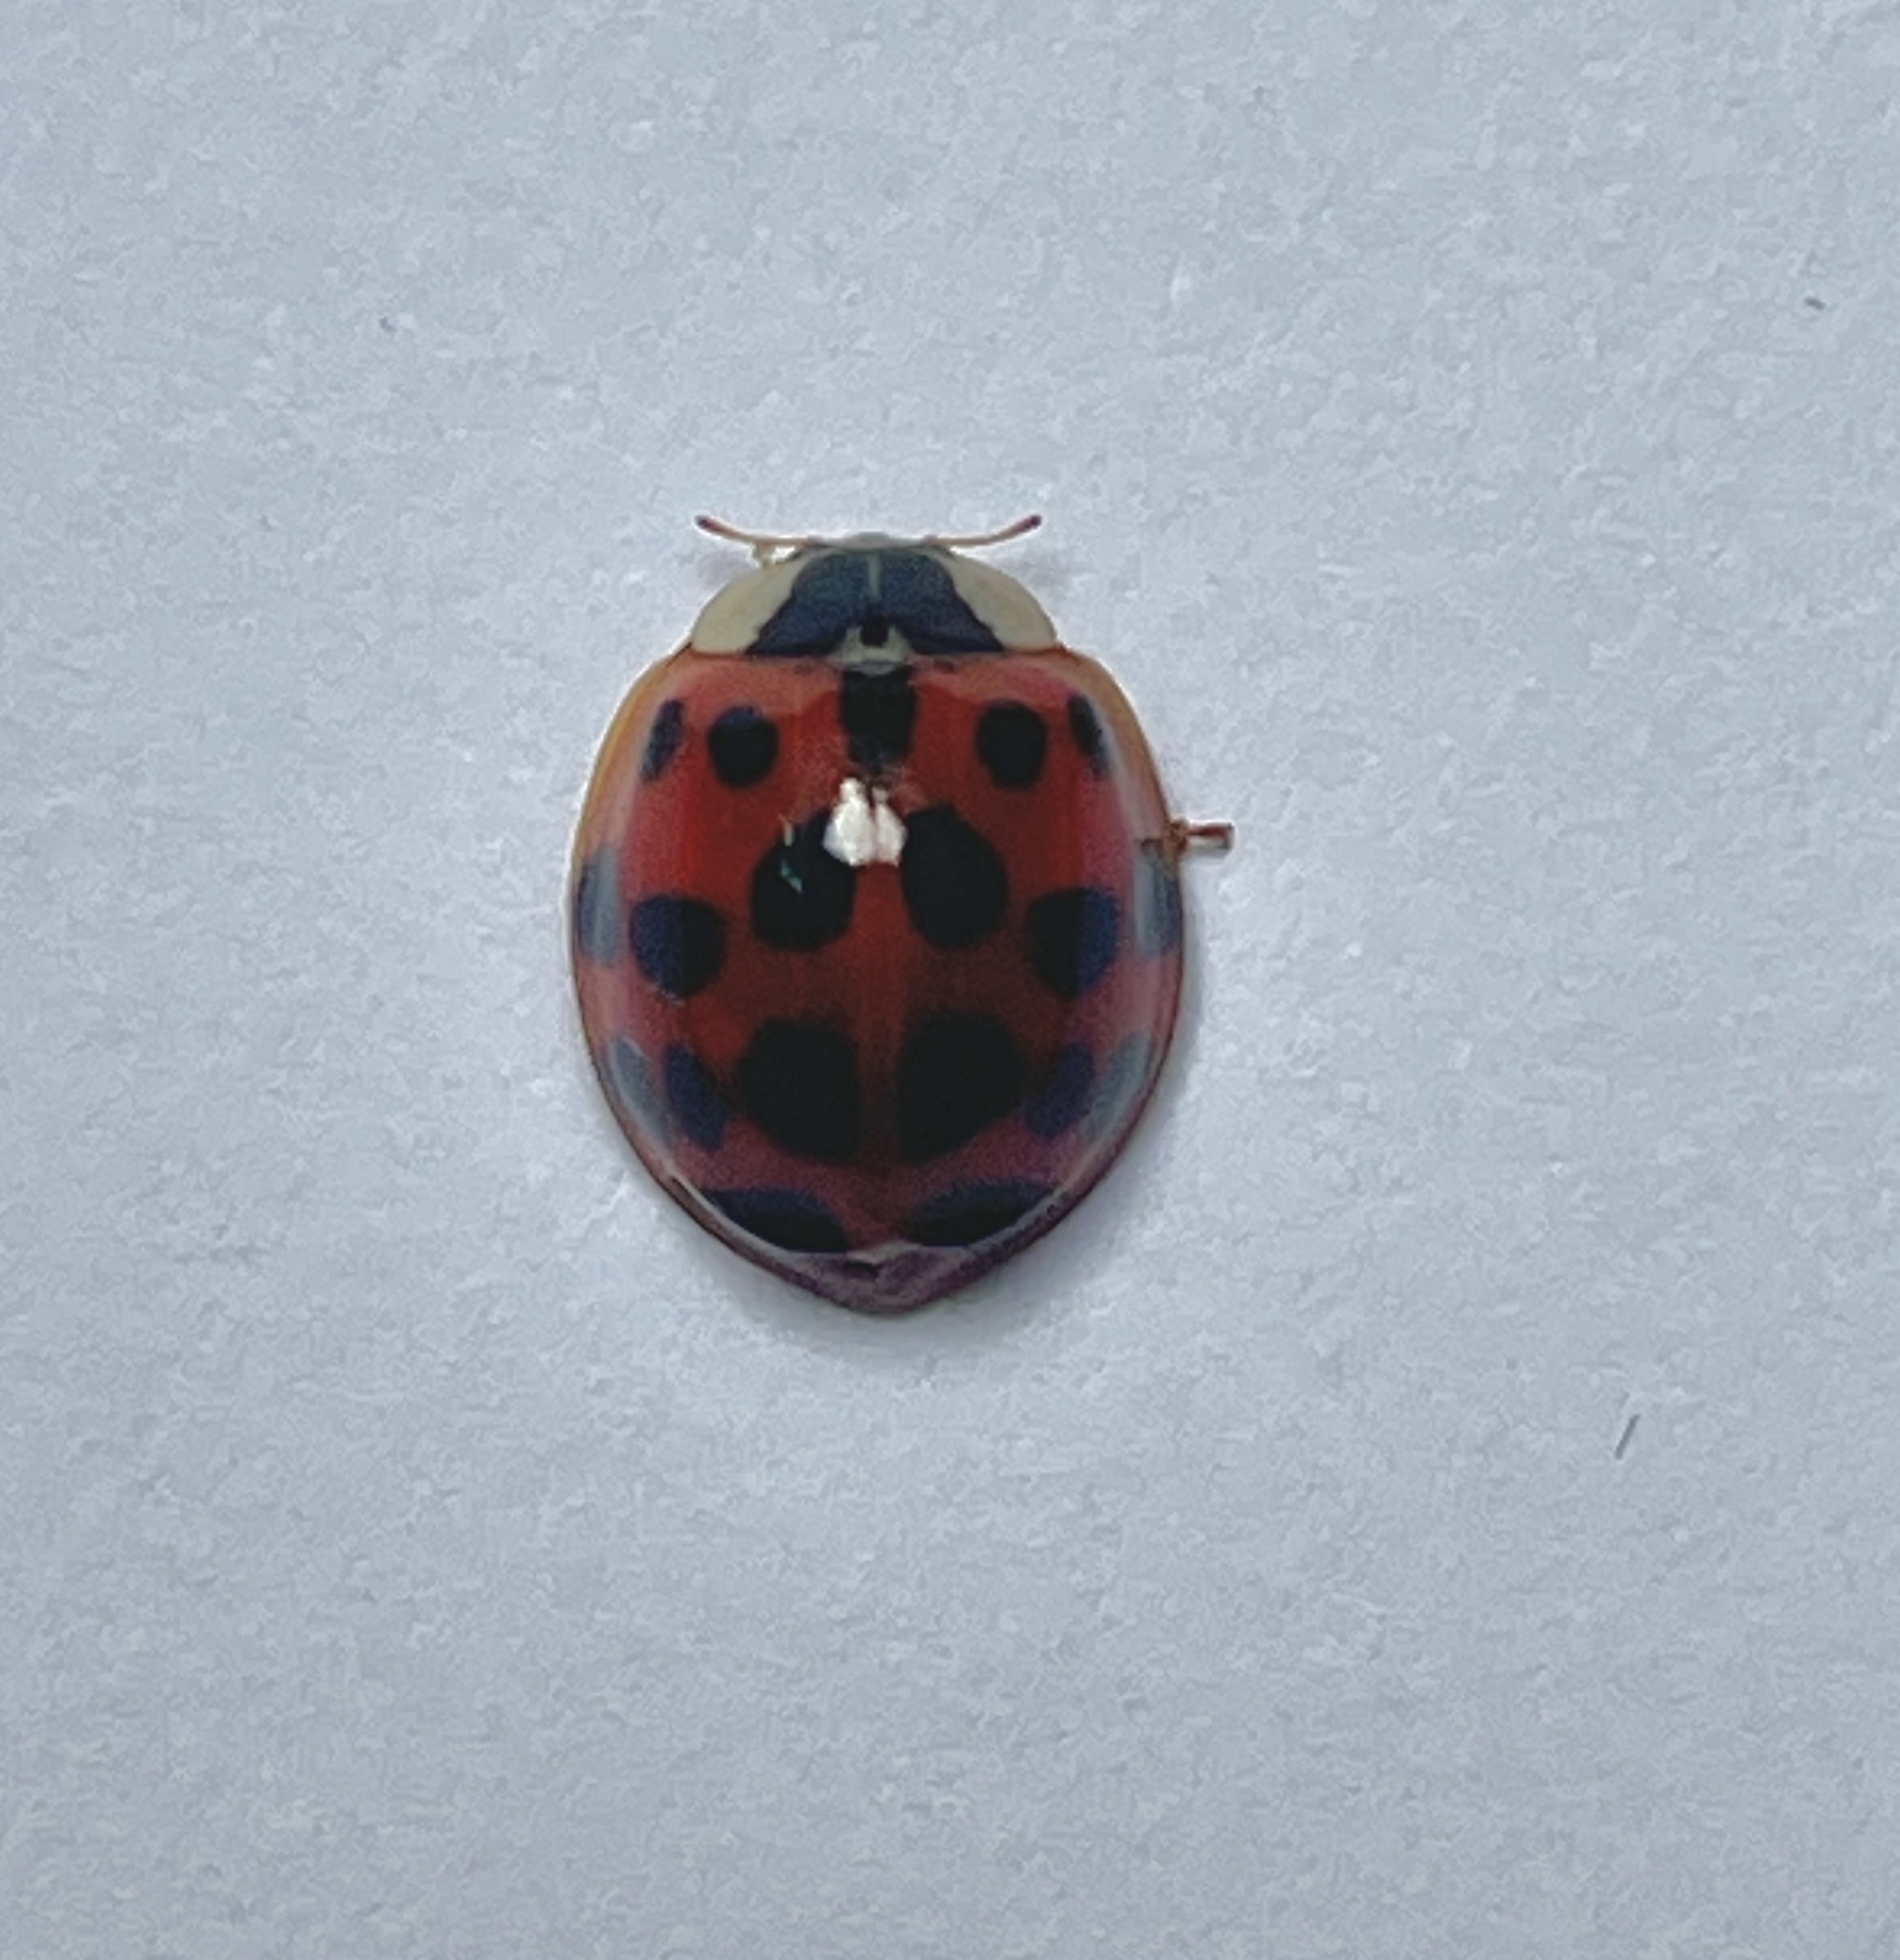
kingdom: Animalia
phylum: Arthropoda
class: Insecta
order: Coleoptera
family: Coccinellidae
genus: Harmonia
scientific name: Harmonia axyridis
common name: Harlequin ladybird
